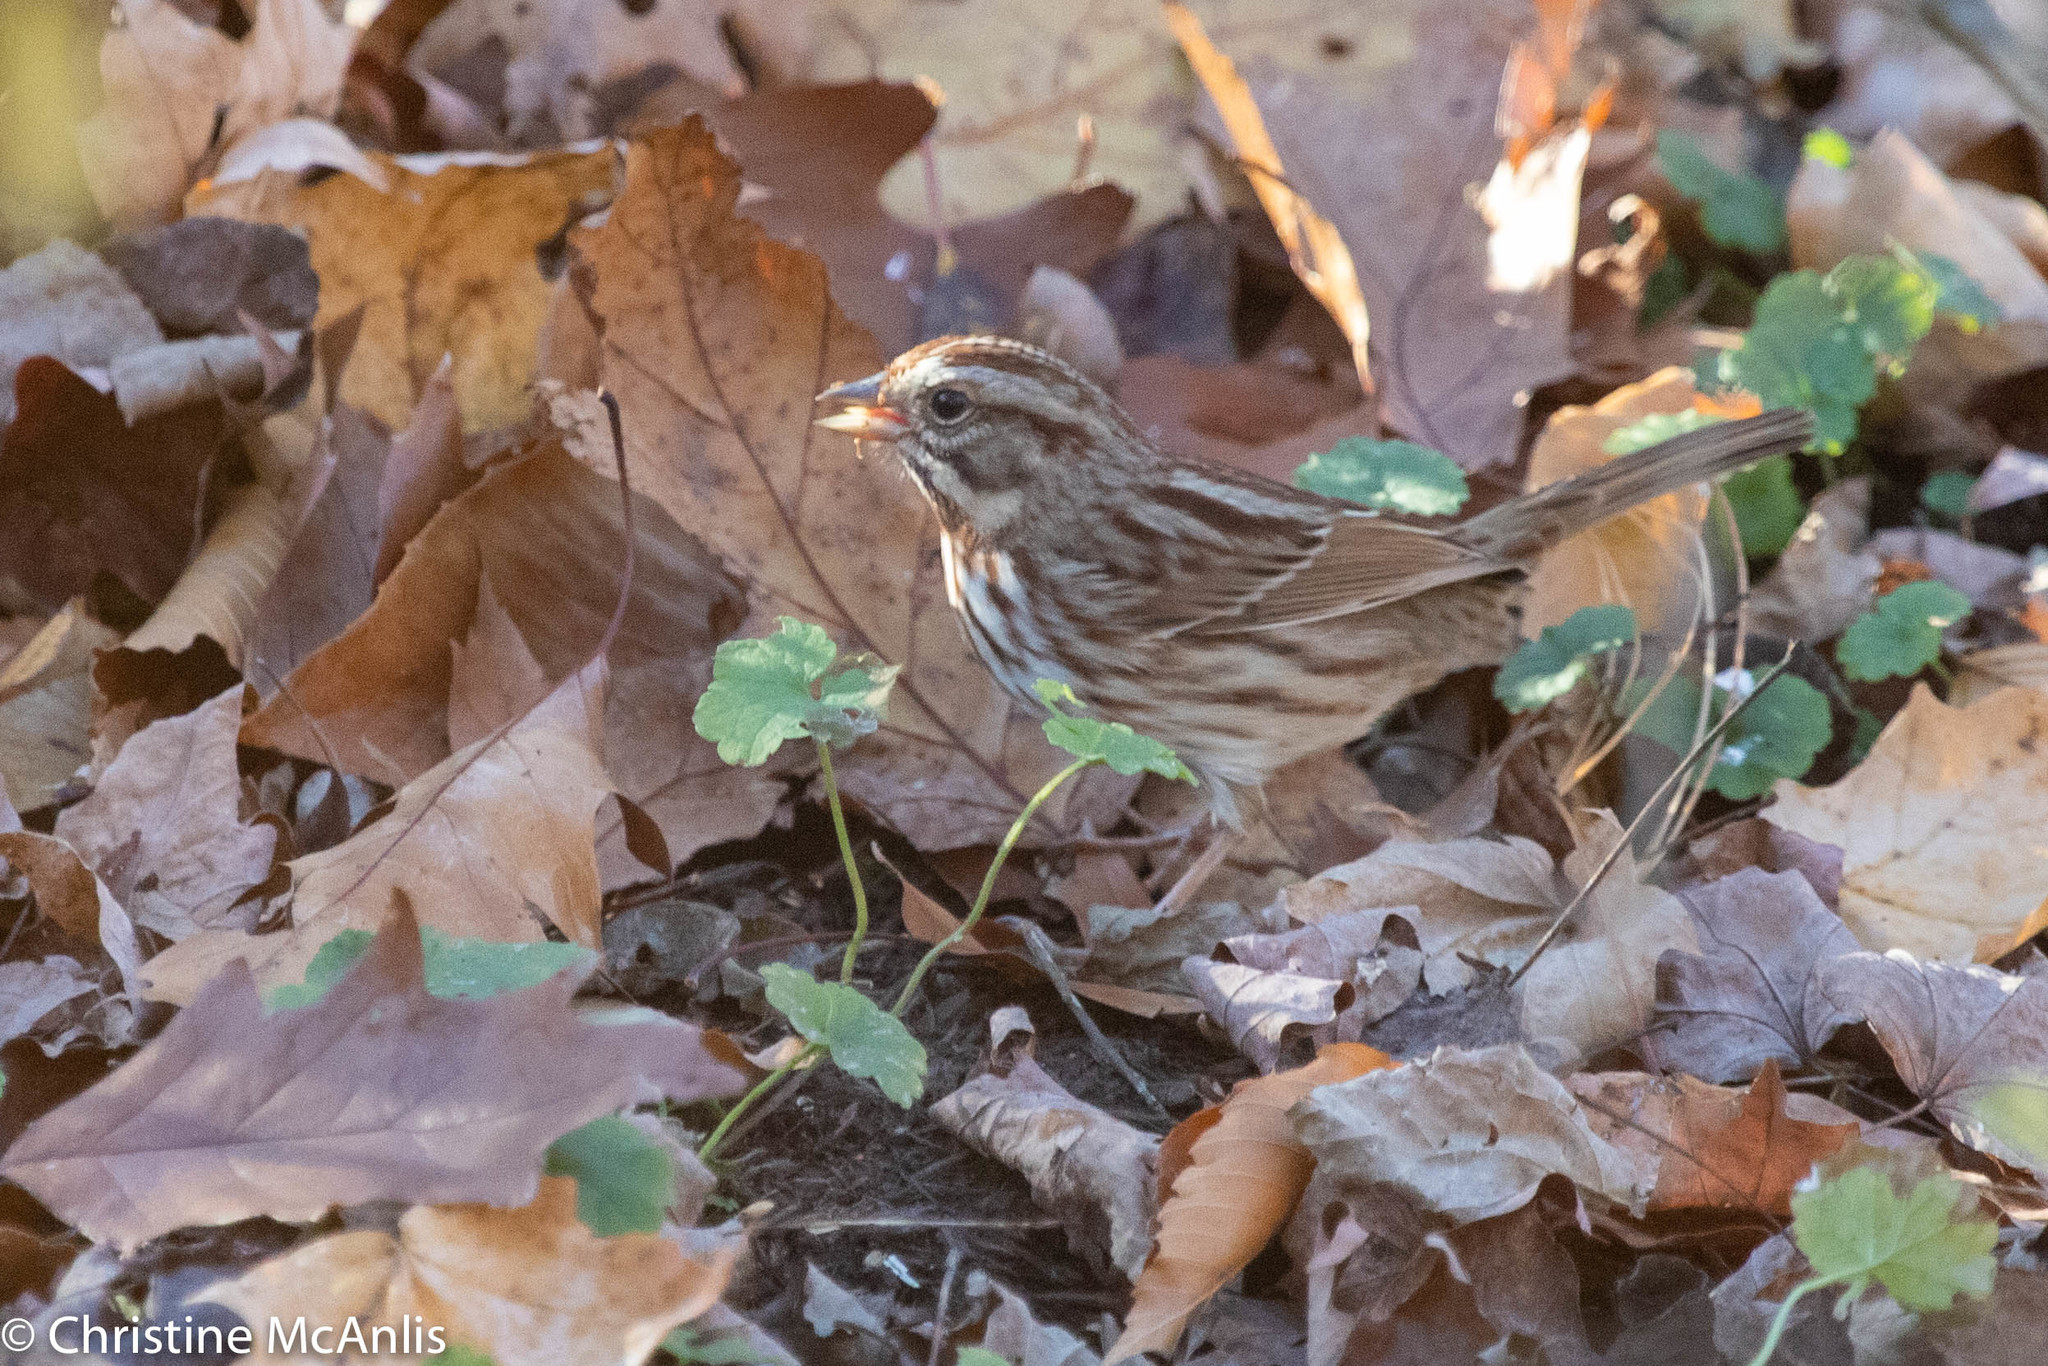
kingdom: Animalia
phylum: Chordata
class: Aves
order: Passeriformes
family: Passerellidae
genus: Melospiza
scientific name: Melospiza melodia
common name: Song sparrow
